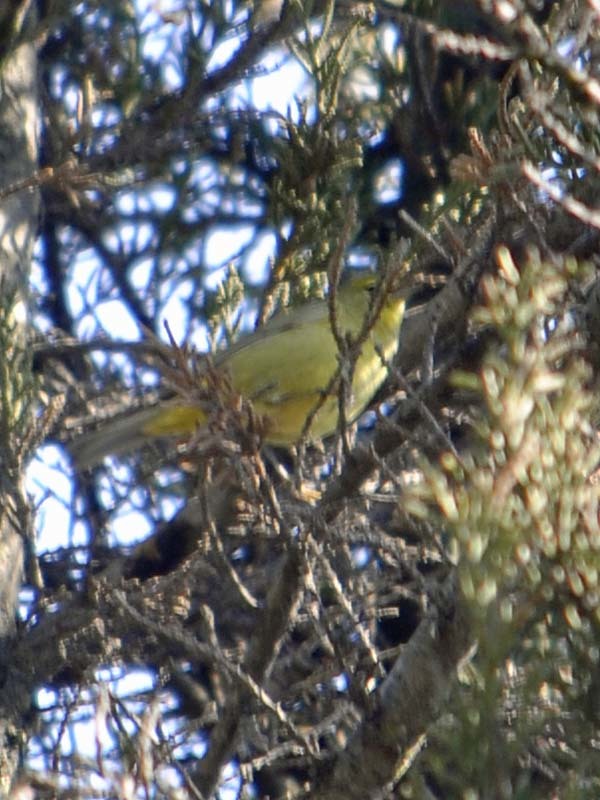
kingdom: Animalia
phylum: Chordata
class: Aves
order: Passeriformes
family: Parulidae
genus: Leiothlypis
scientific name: Leiothlypis celata
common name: Orange-crowned warbler
